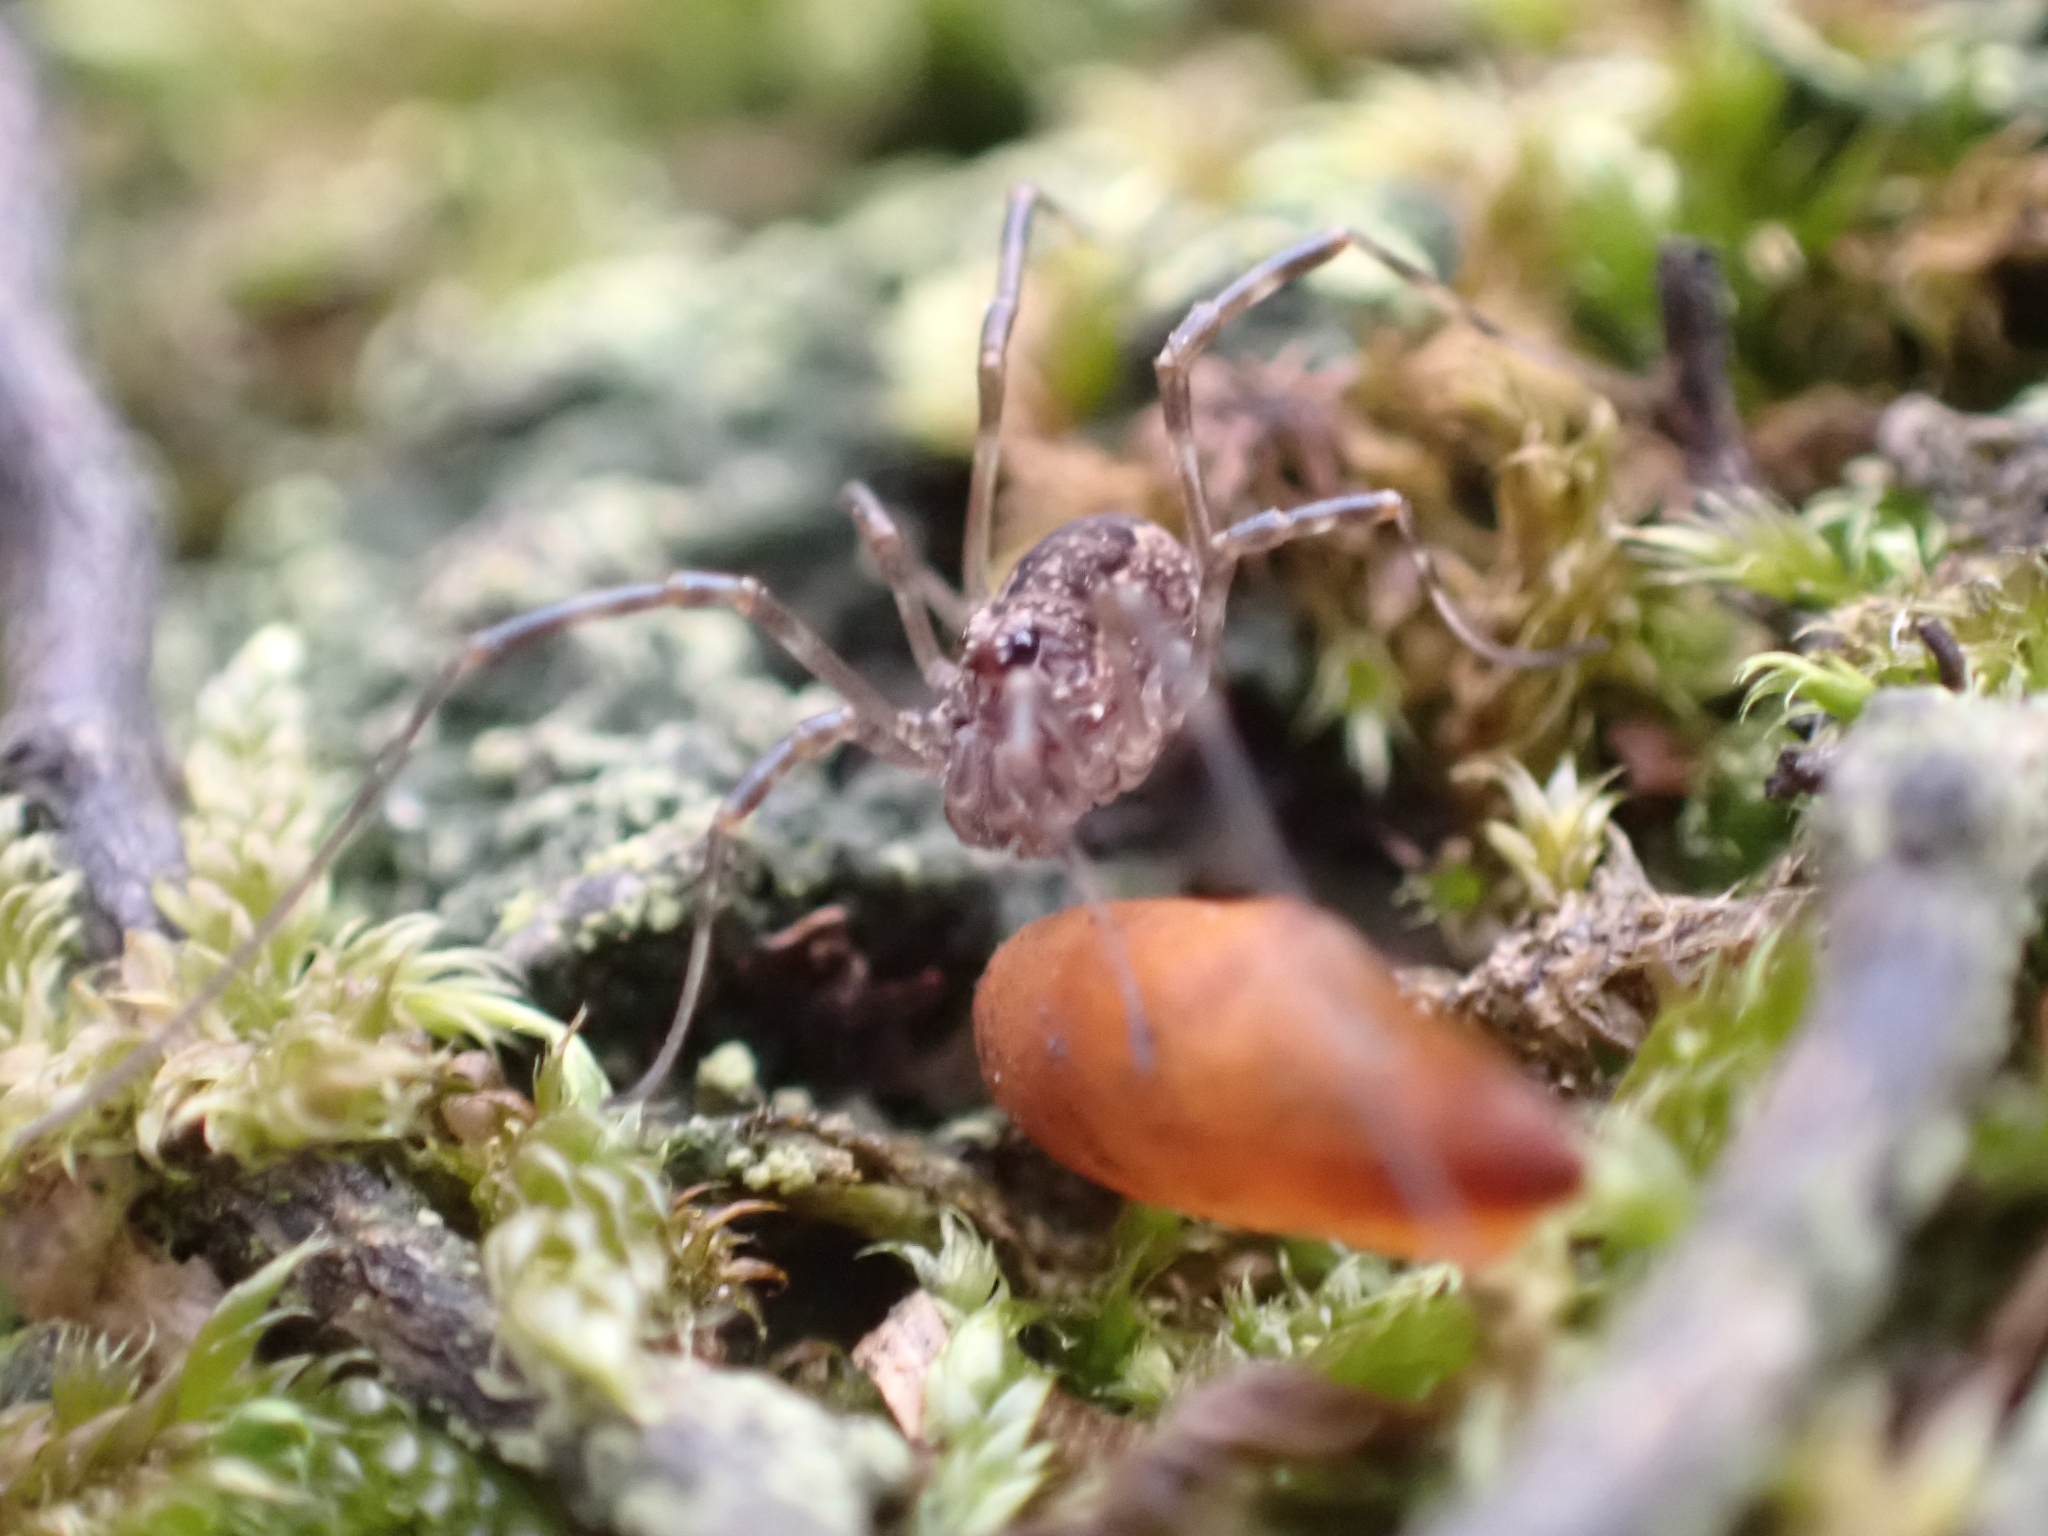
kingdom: Animalia
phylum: Arthropoda
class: Arachnida
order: Opiliones
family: Phalangiidae
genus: Rilaena
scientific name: Rilaena triangularis
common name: Spring harvestman
